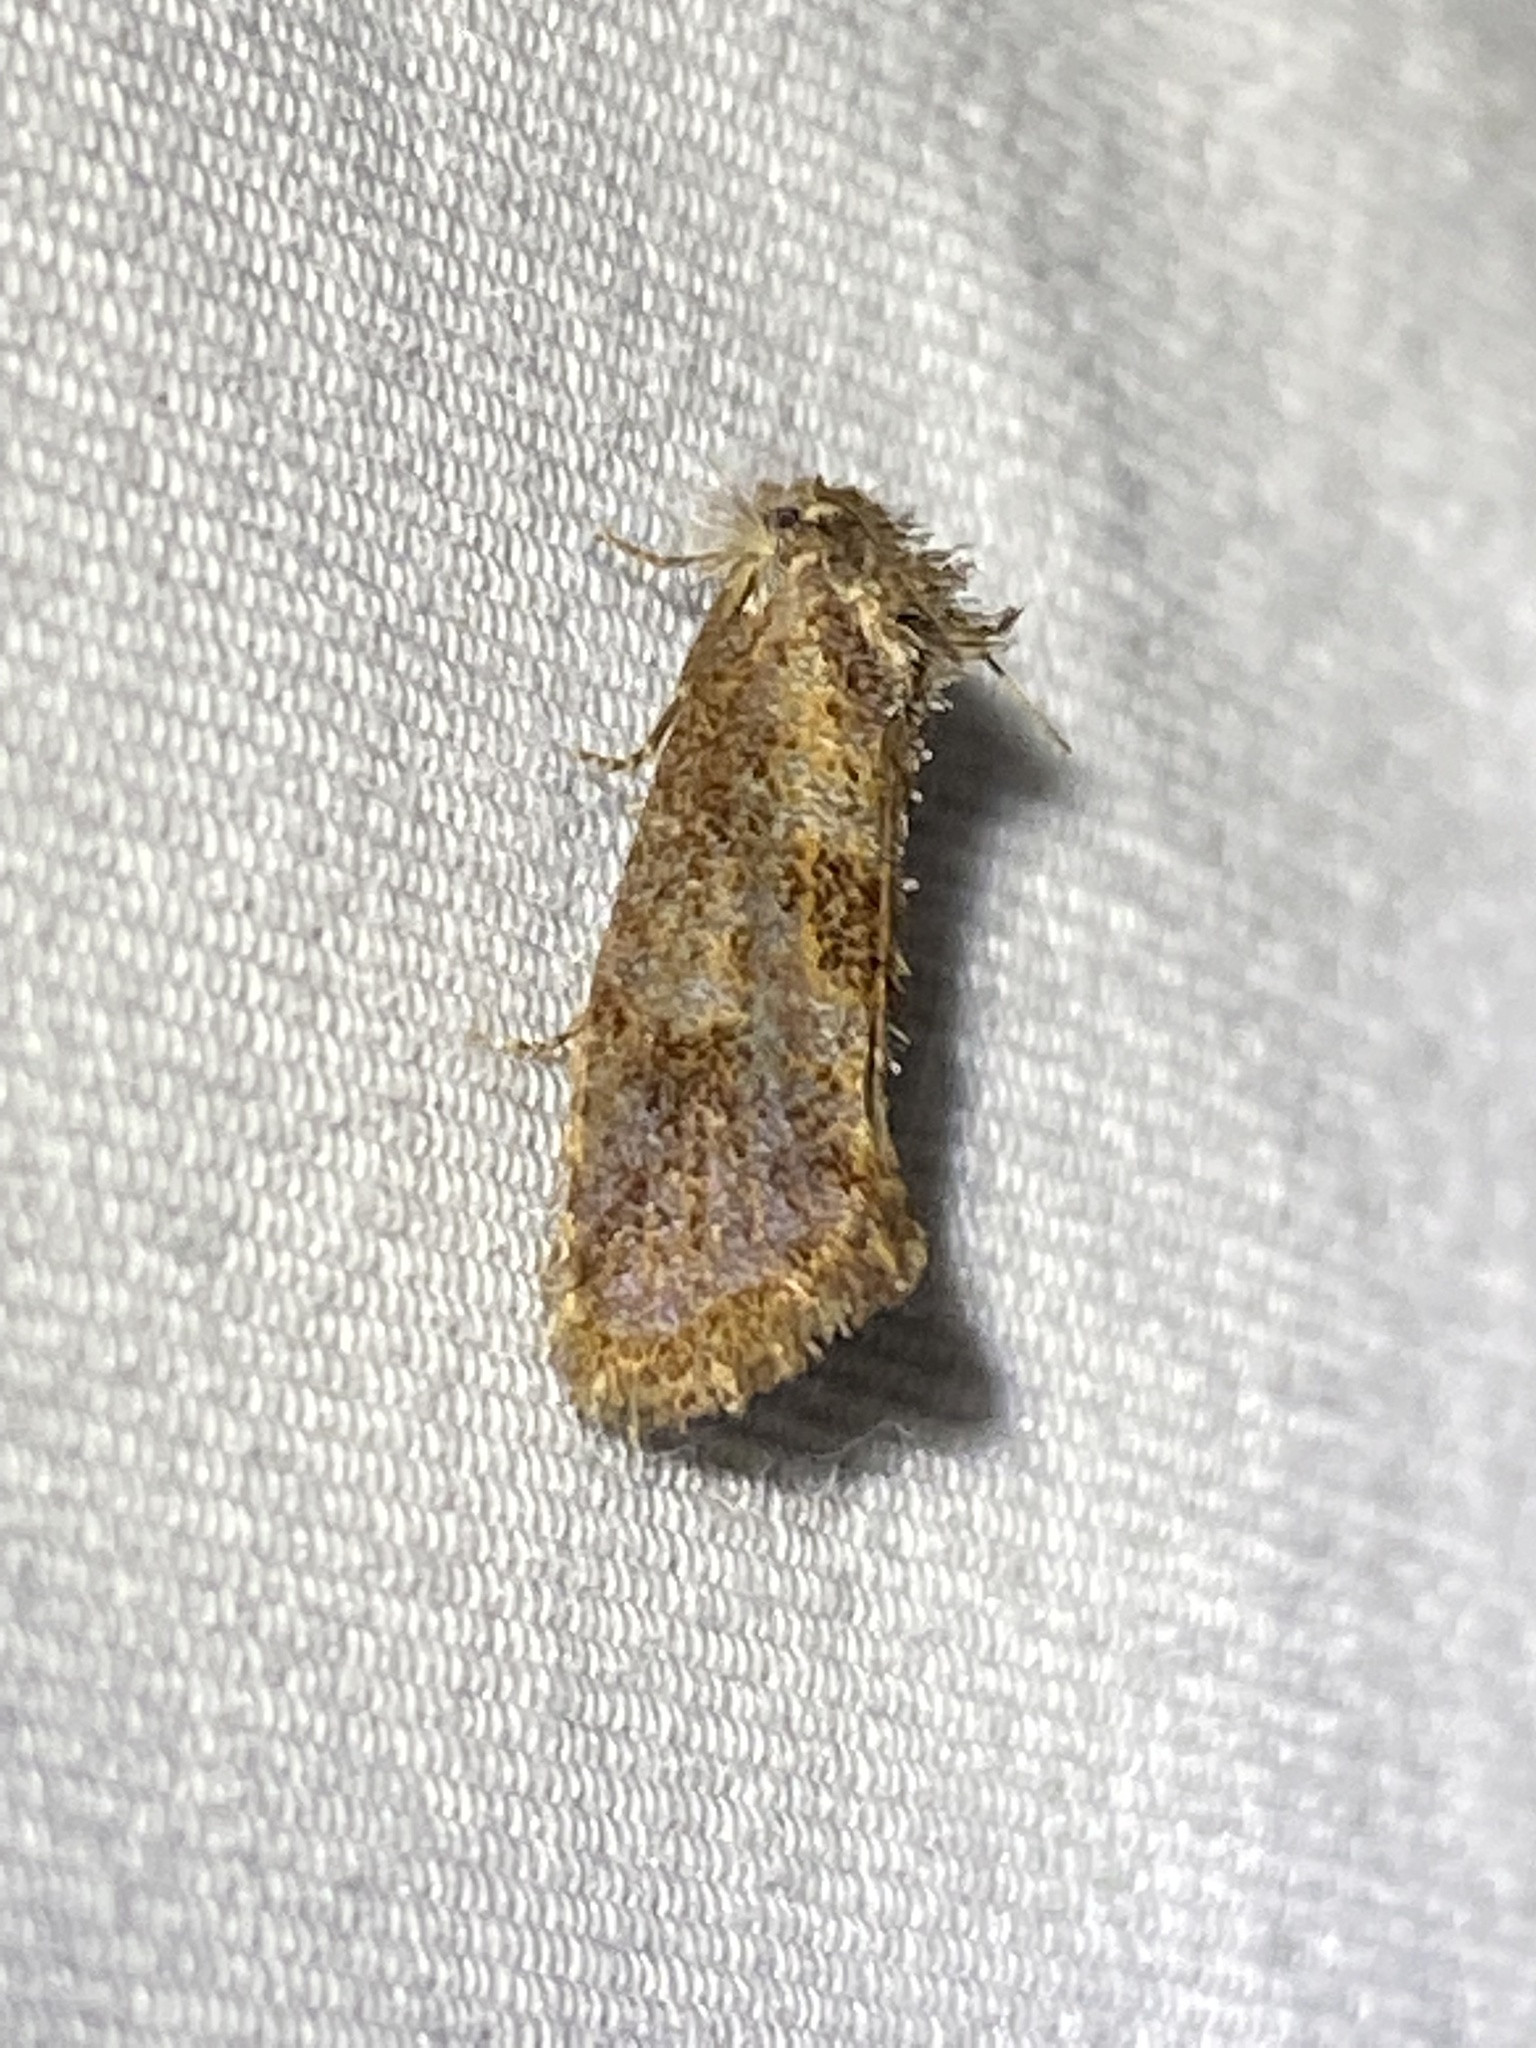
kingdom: Animalia
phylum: Arthropoda
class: Insecta
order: Lepidoptera
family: Tineidae
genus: Acrolophus
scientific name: Acrolophus panamae
